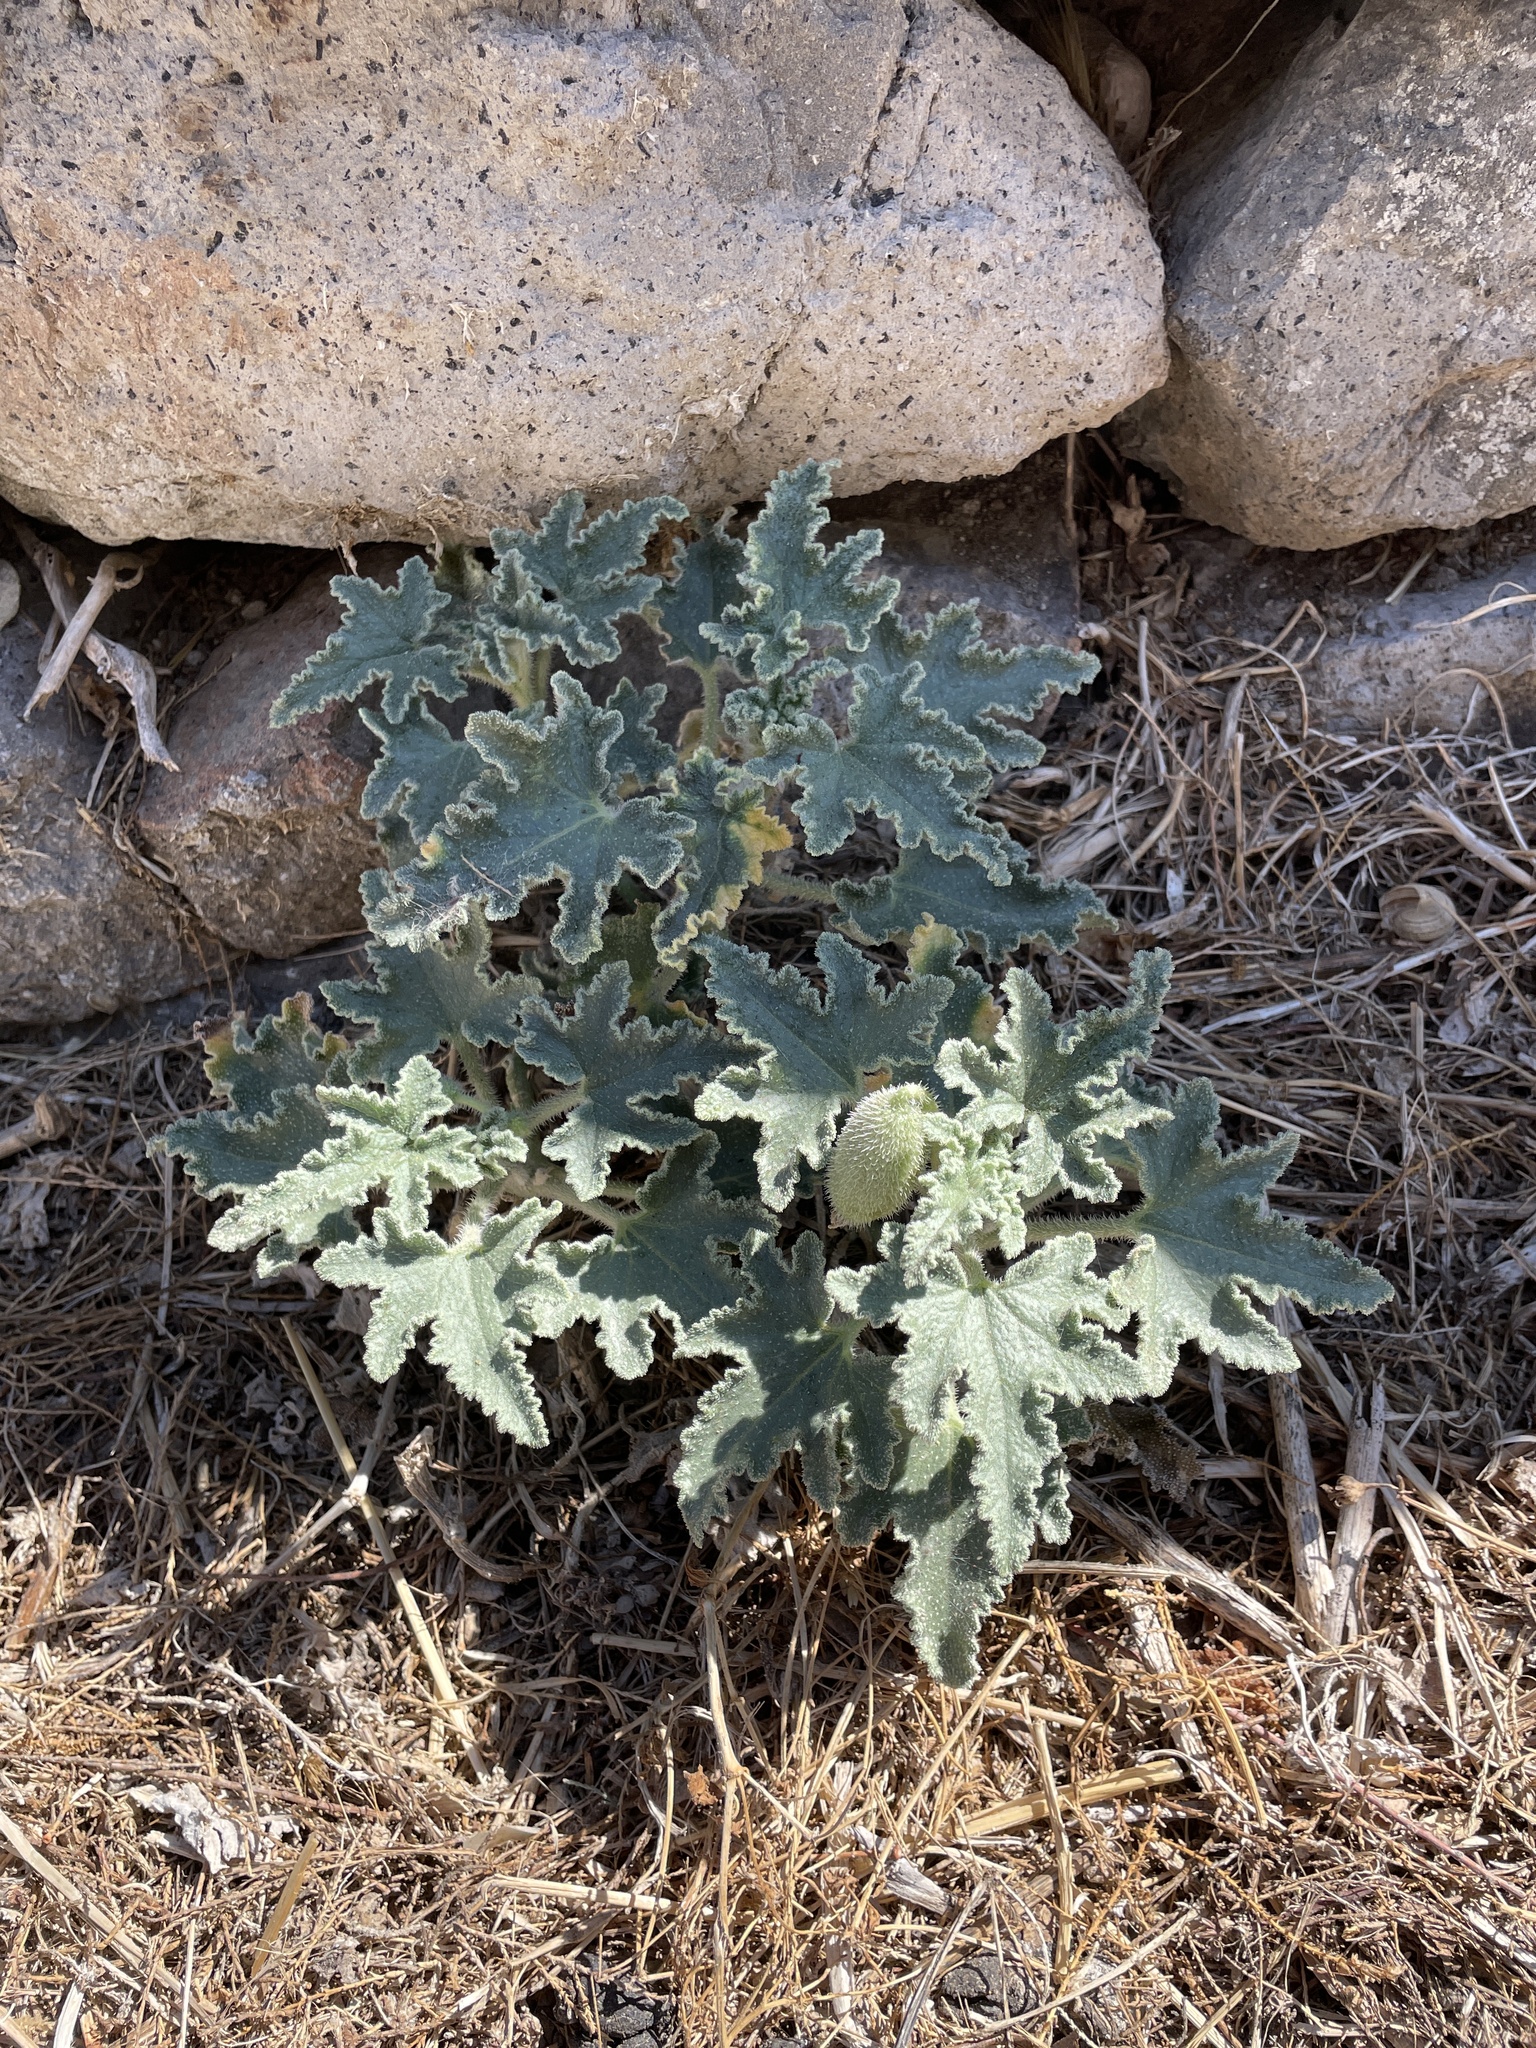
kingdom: Plantae
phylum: Tracheophyta
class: Magnoliopsida
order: Cucurbitales
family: Cucurbitaceae
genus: Ecballium
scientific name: Ecballium elaterium
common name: Squirting cucumber
